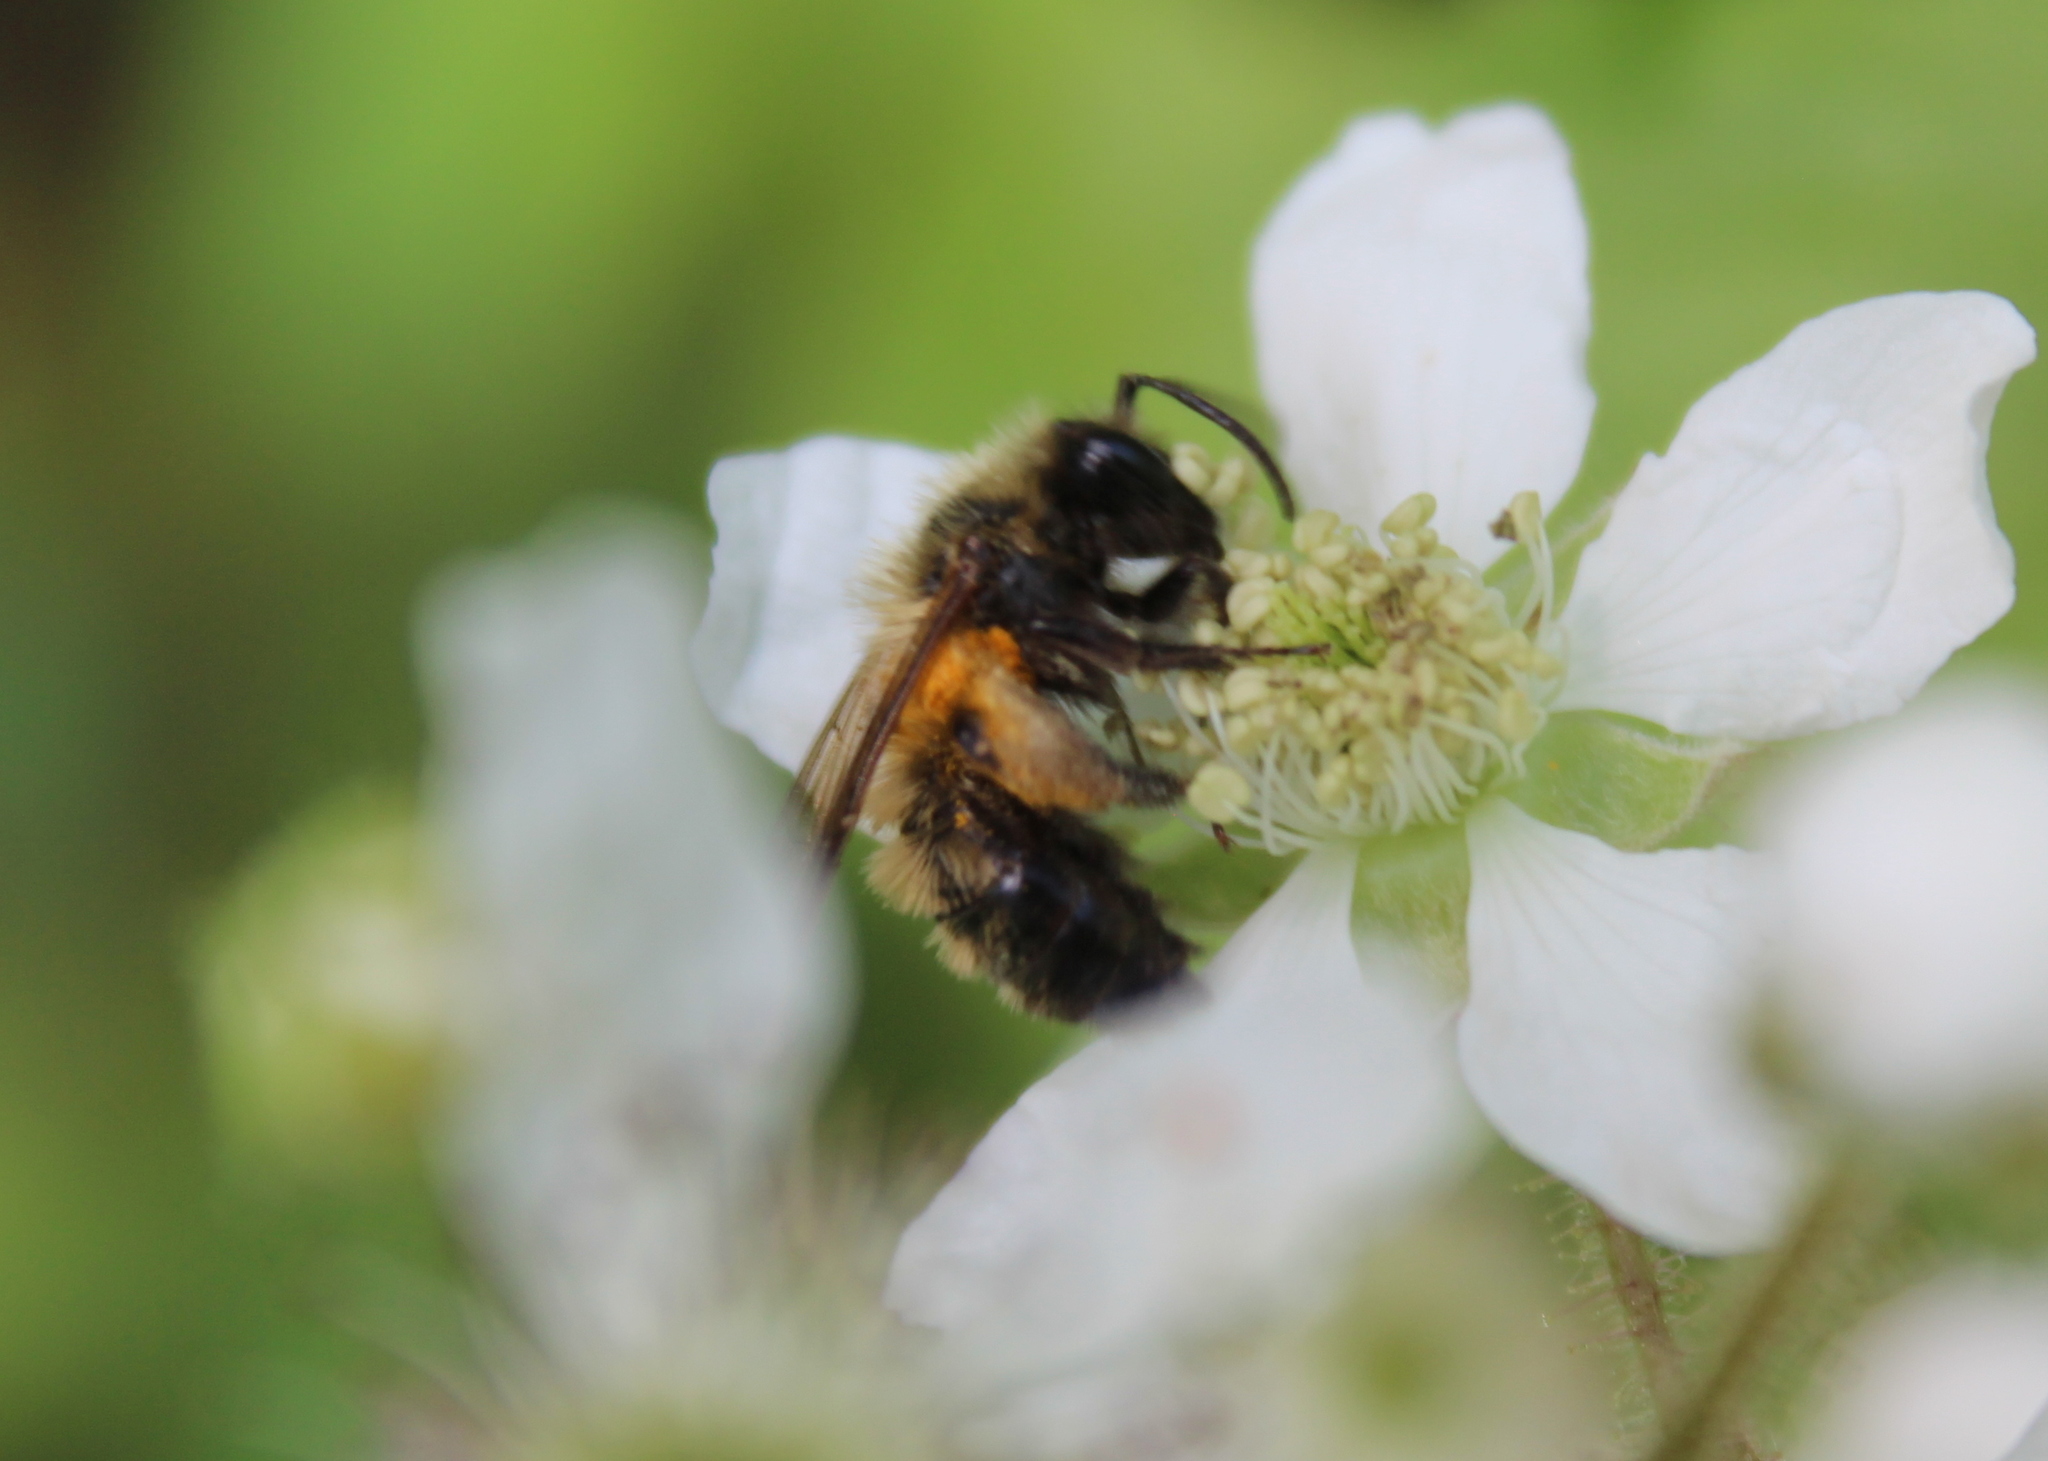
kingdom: Animalia
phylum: Arthropoda
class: Insecta
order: Hymenoptera
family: Andrenidae
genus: Andrena
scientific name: Andrena milwaukeensis
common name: Milwaukee mining bee
